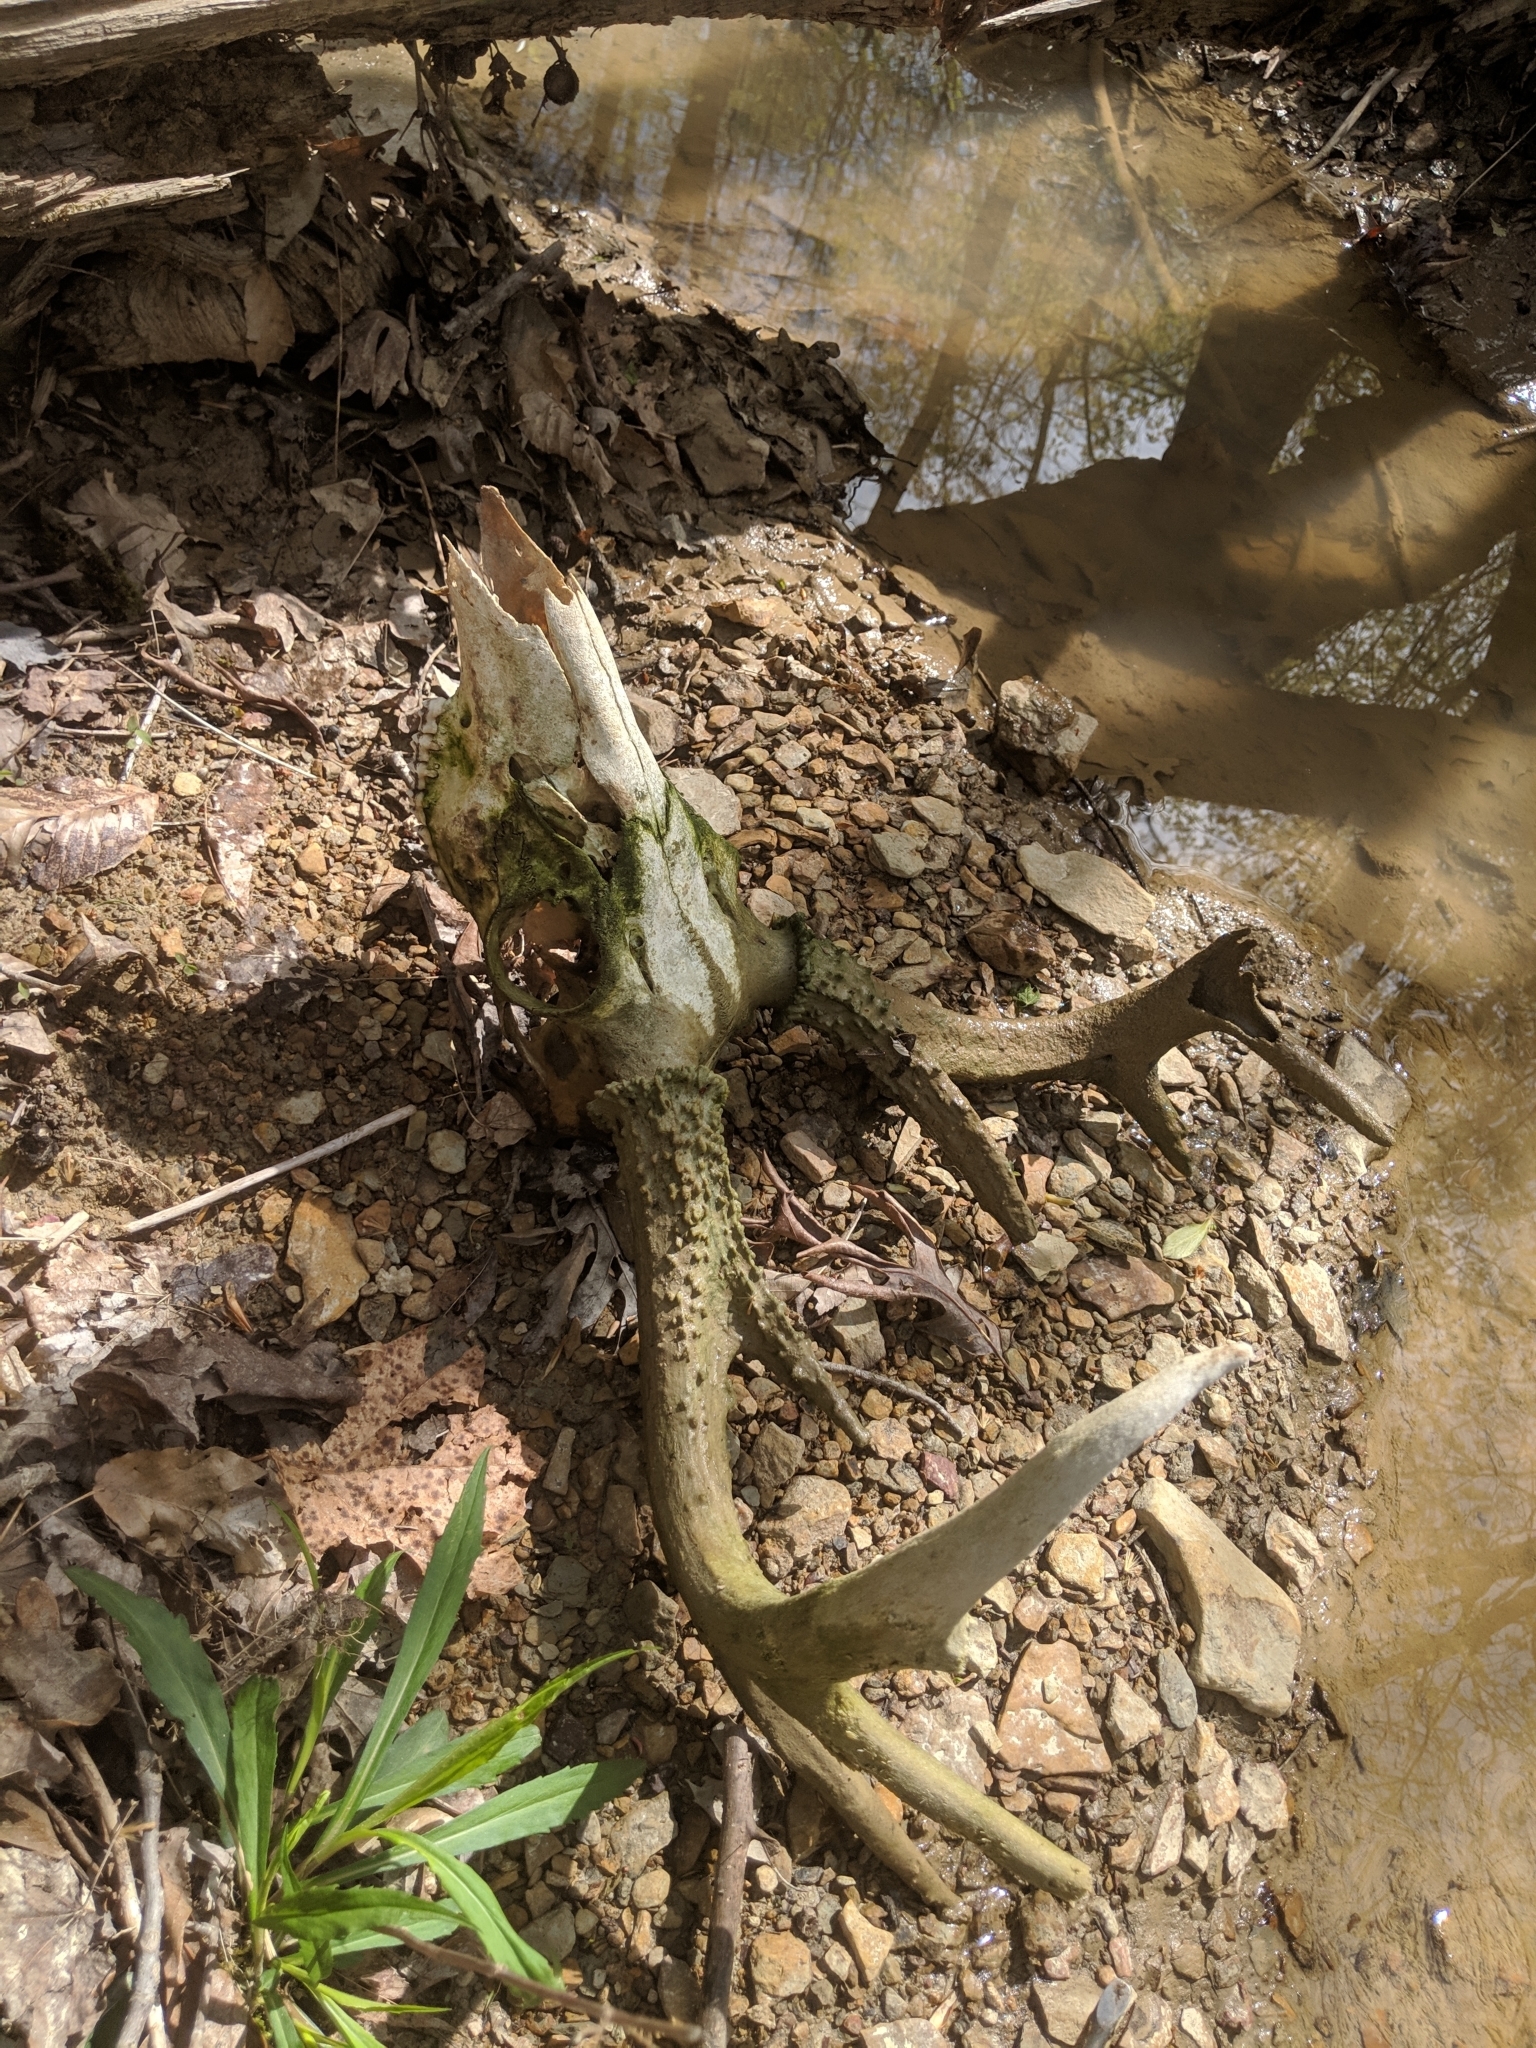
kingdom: Animalia
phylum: Chordata
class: Mammalia
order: Artiodactyla
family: Cervidae
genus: Odocoileus
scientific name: Odocoileus virginianus
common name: White-tailed deer
